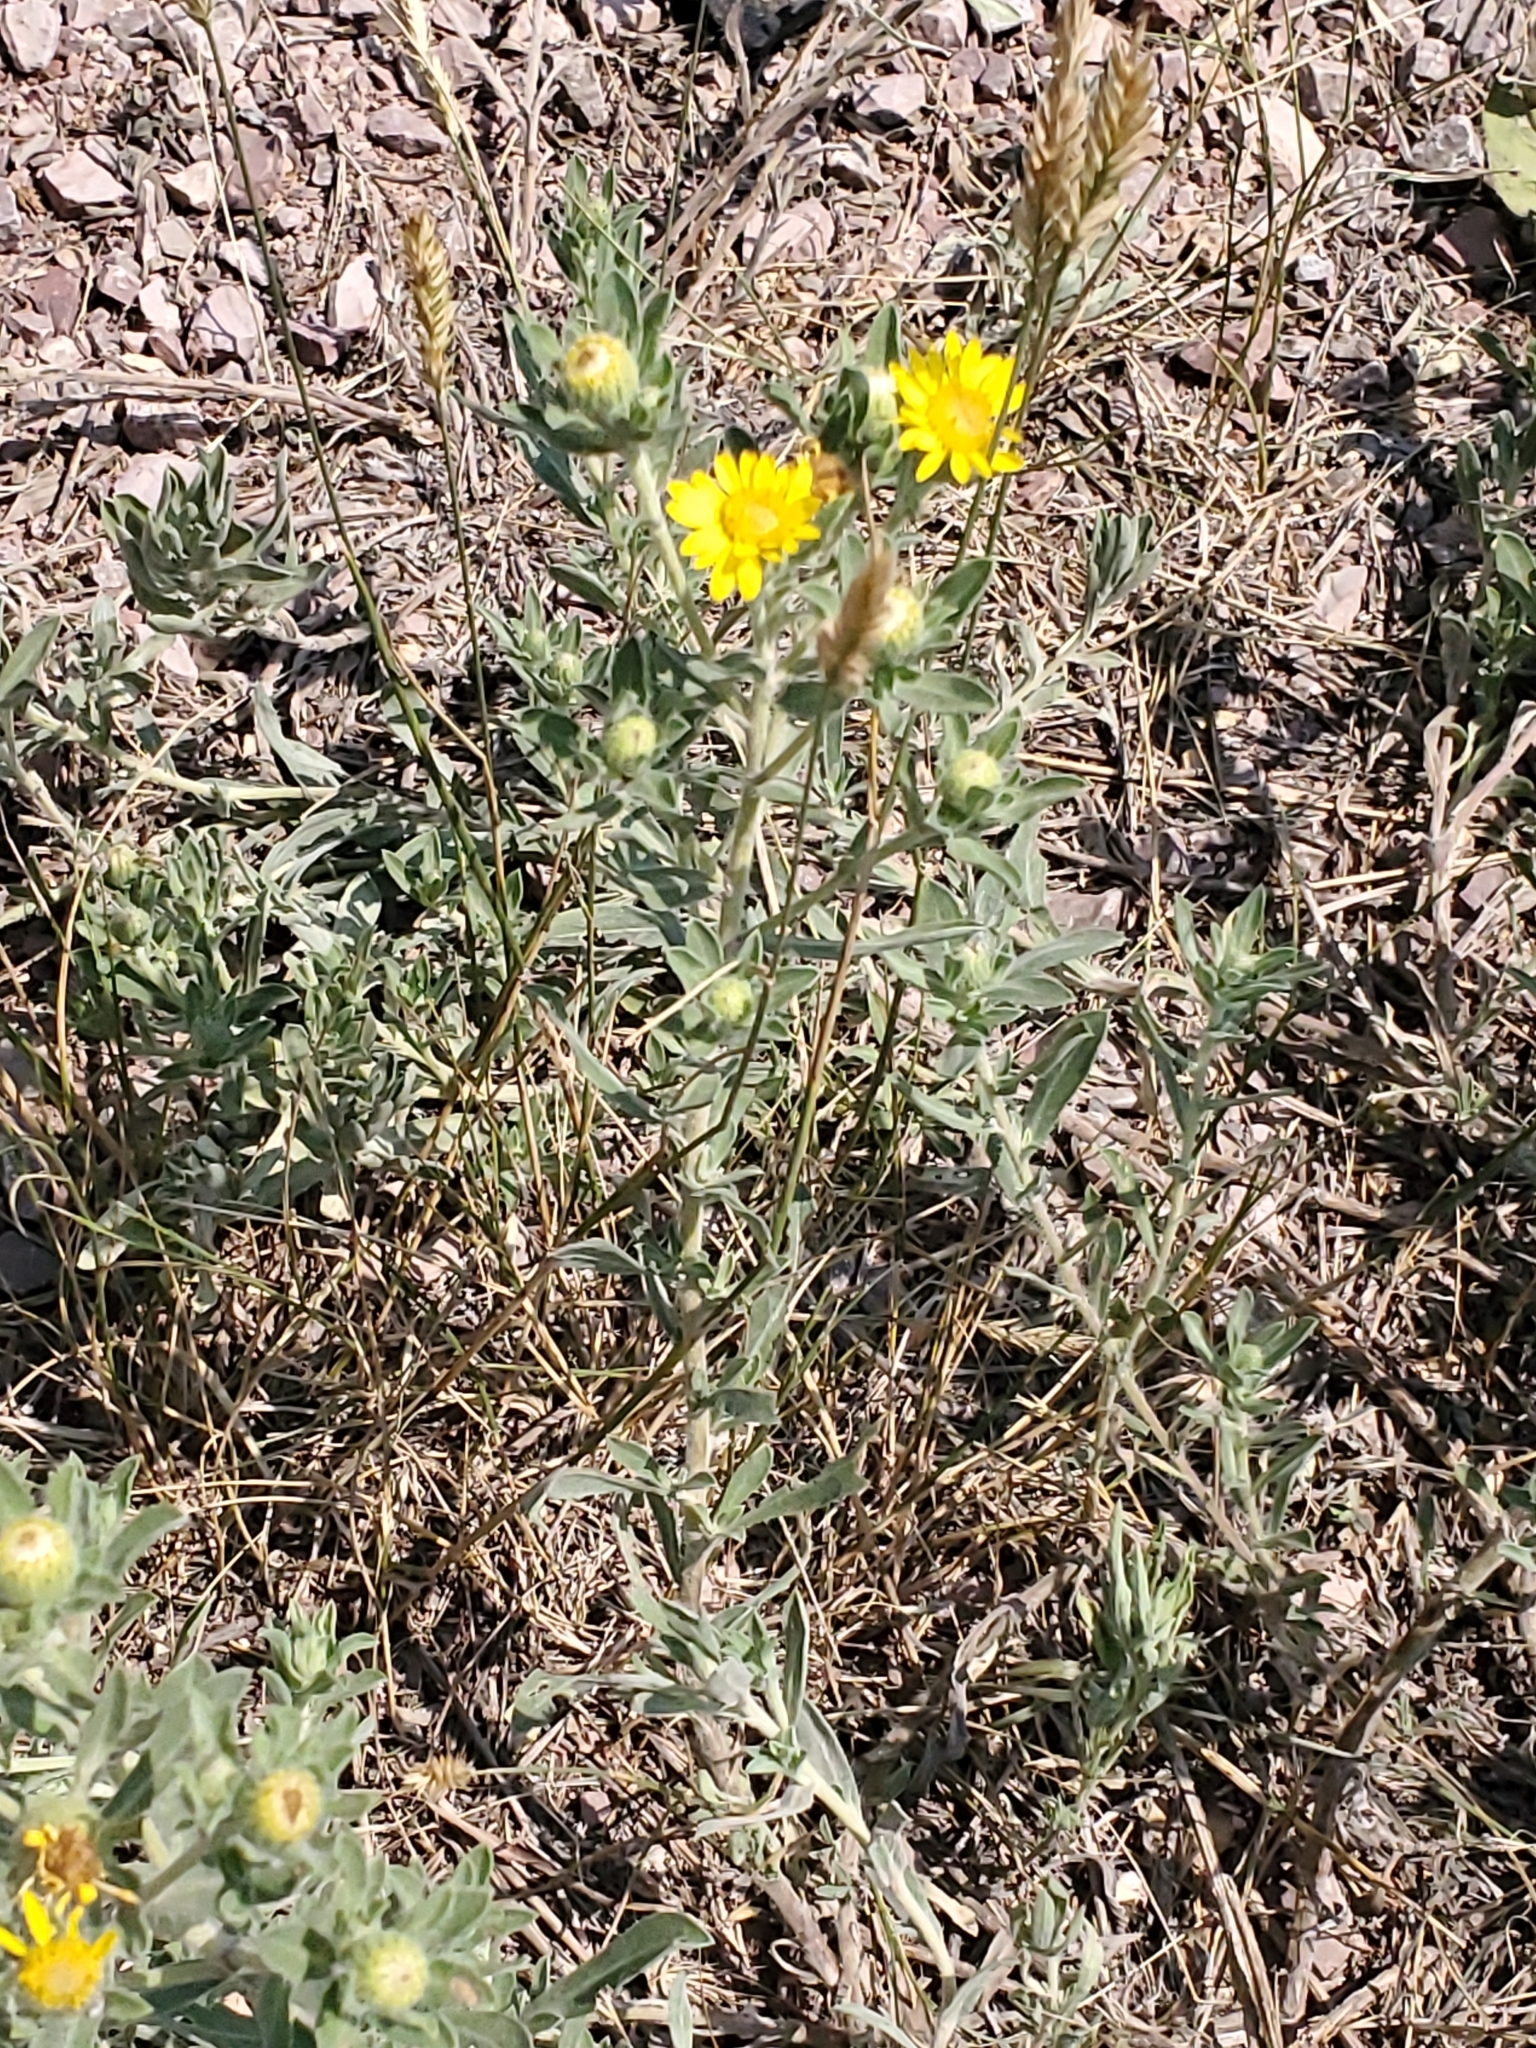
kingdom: Plantae
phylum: Tracheophyta
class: Magnoliopsida
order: Asterales
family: Asteraceae
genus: Heterotheca
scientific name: Heterotheca villosa
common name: Hairy false goldenaster
